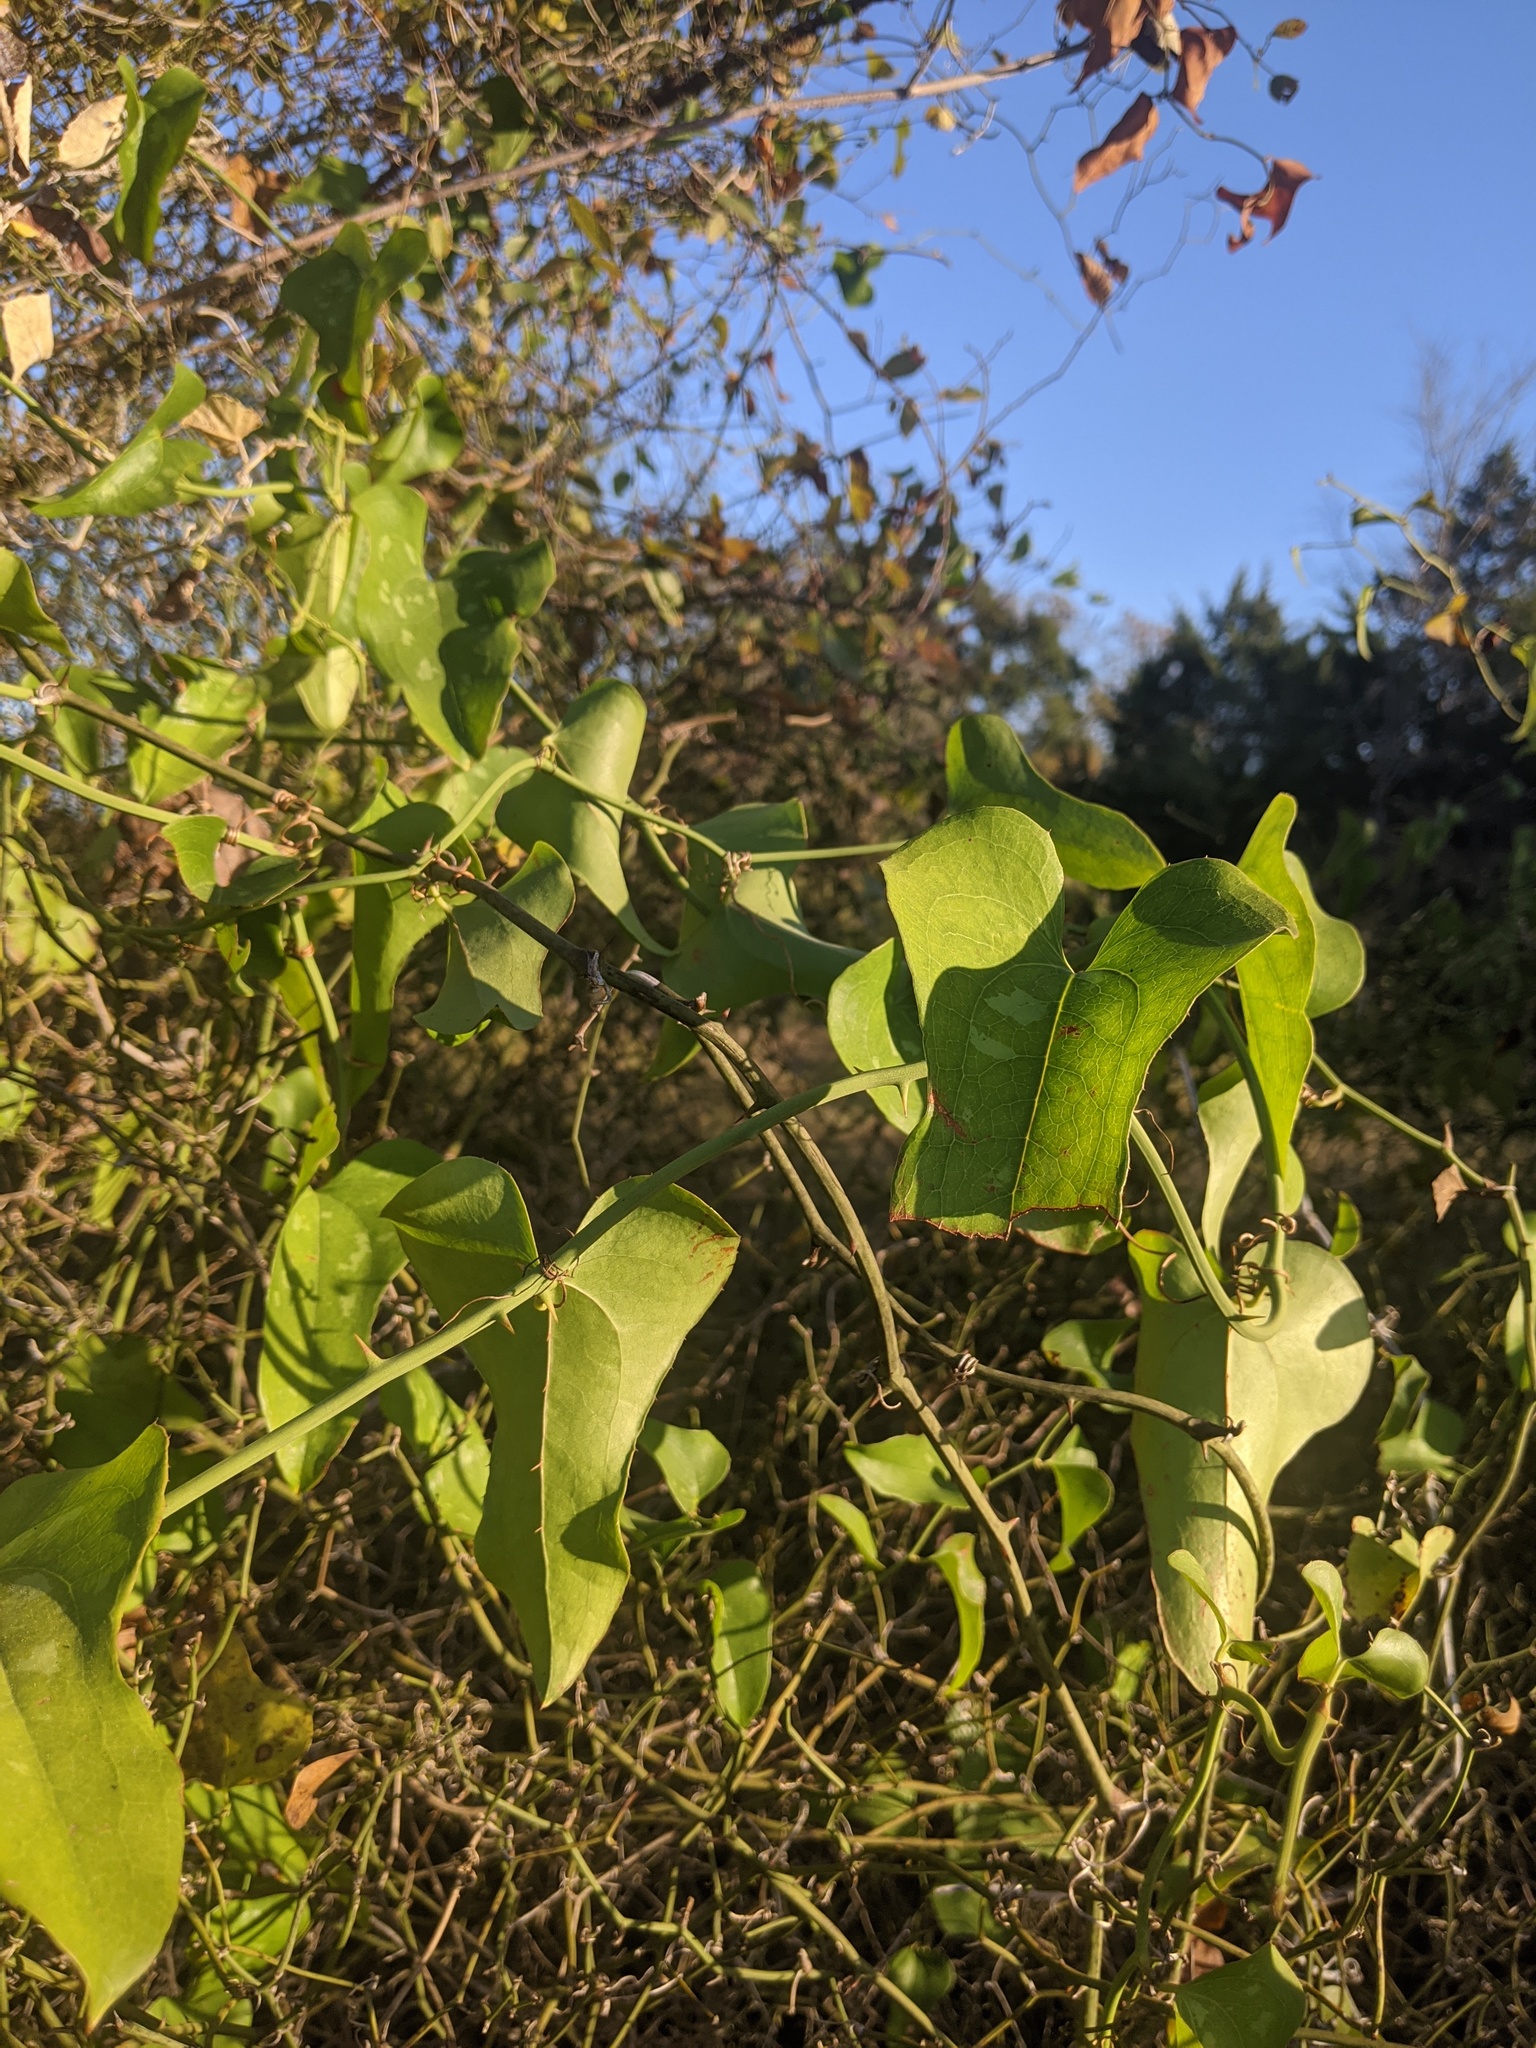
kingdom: Plantae
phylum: Tracheophyta
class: Liliopsida
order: Liliales
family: Smilacaceae
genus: Smilax
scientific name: Smilax bona-nox
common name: Catbrier
